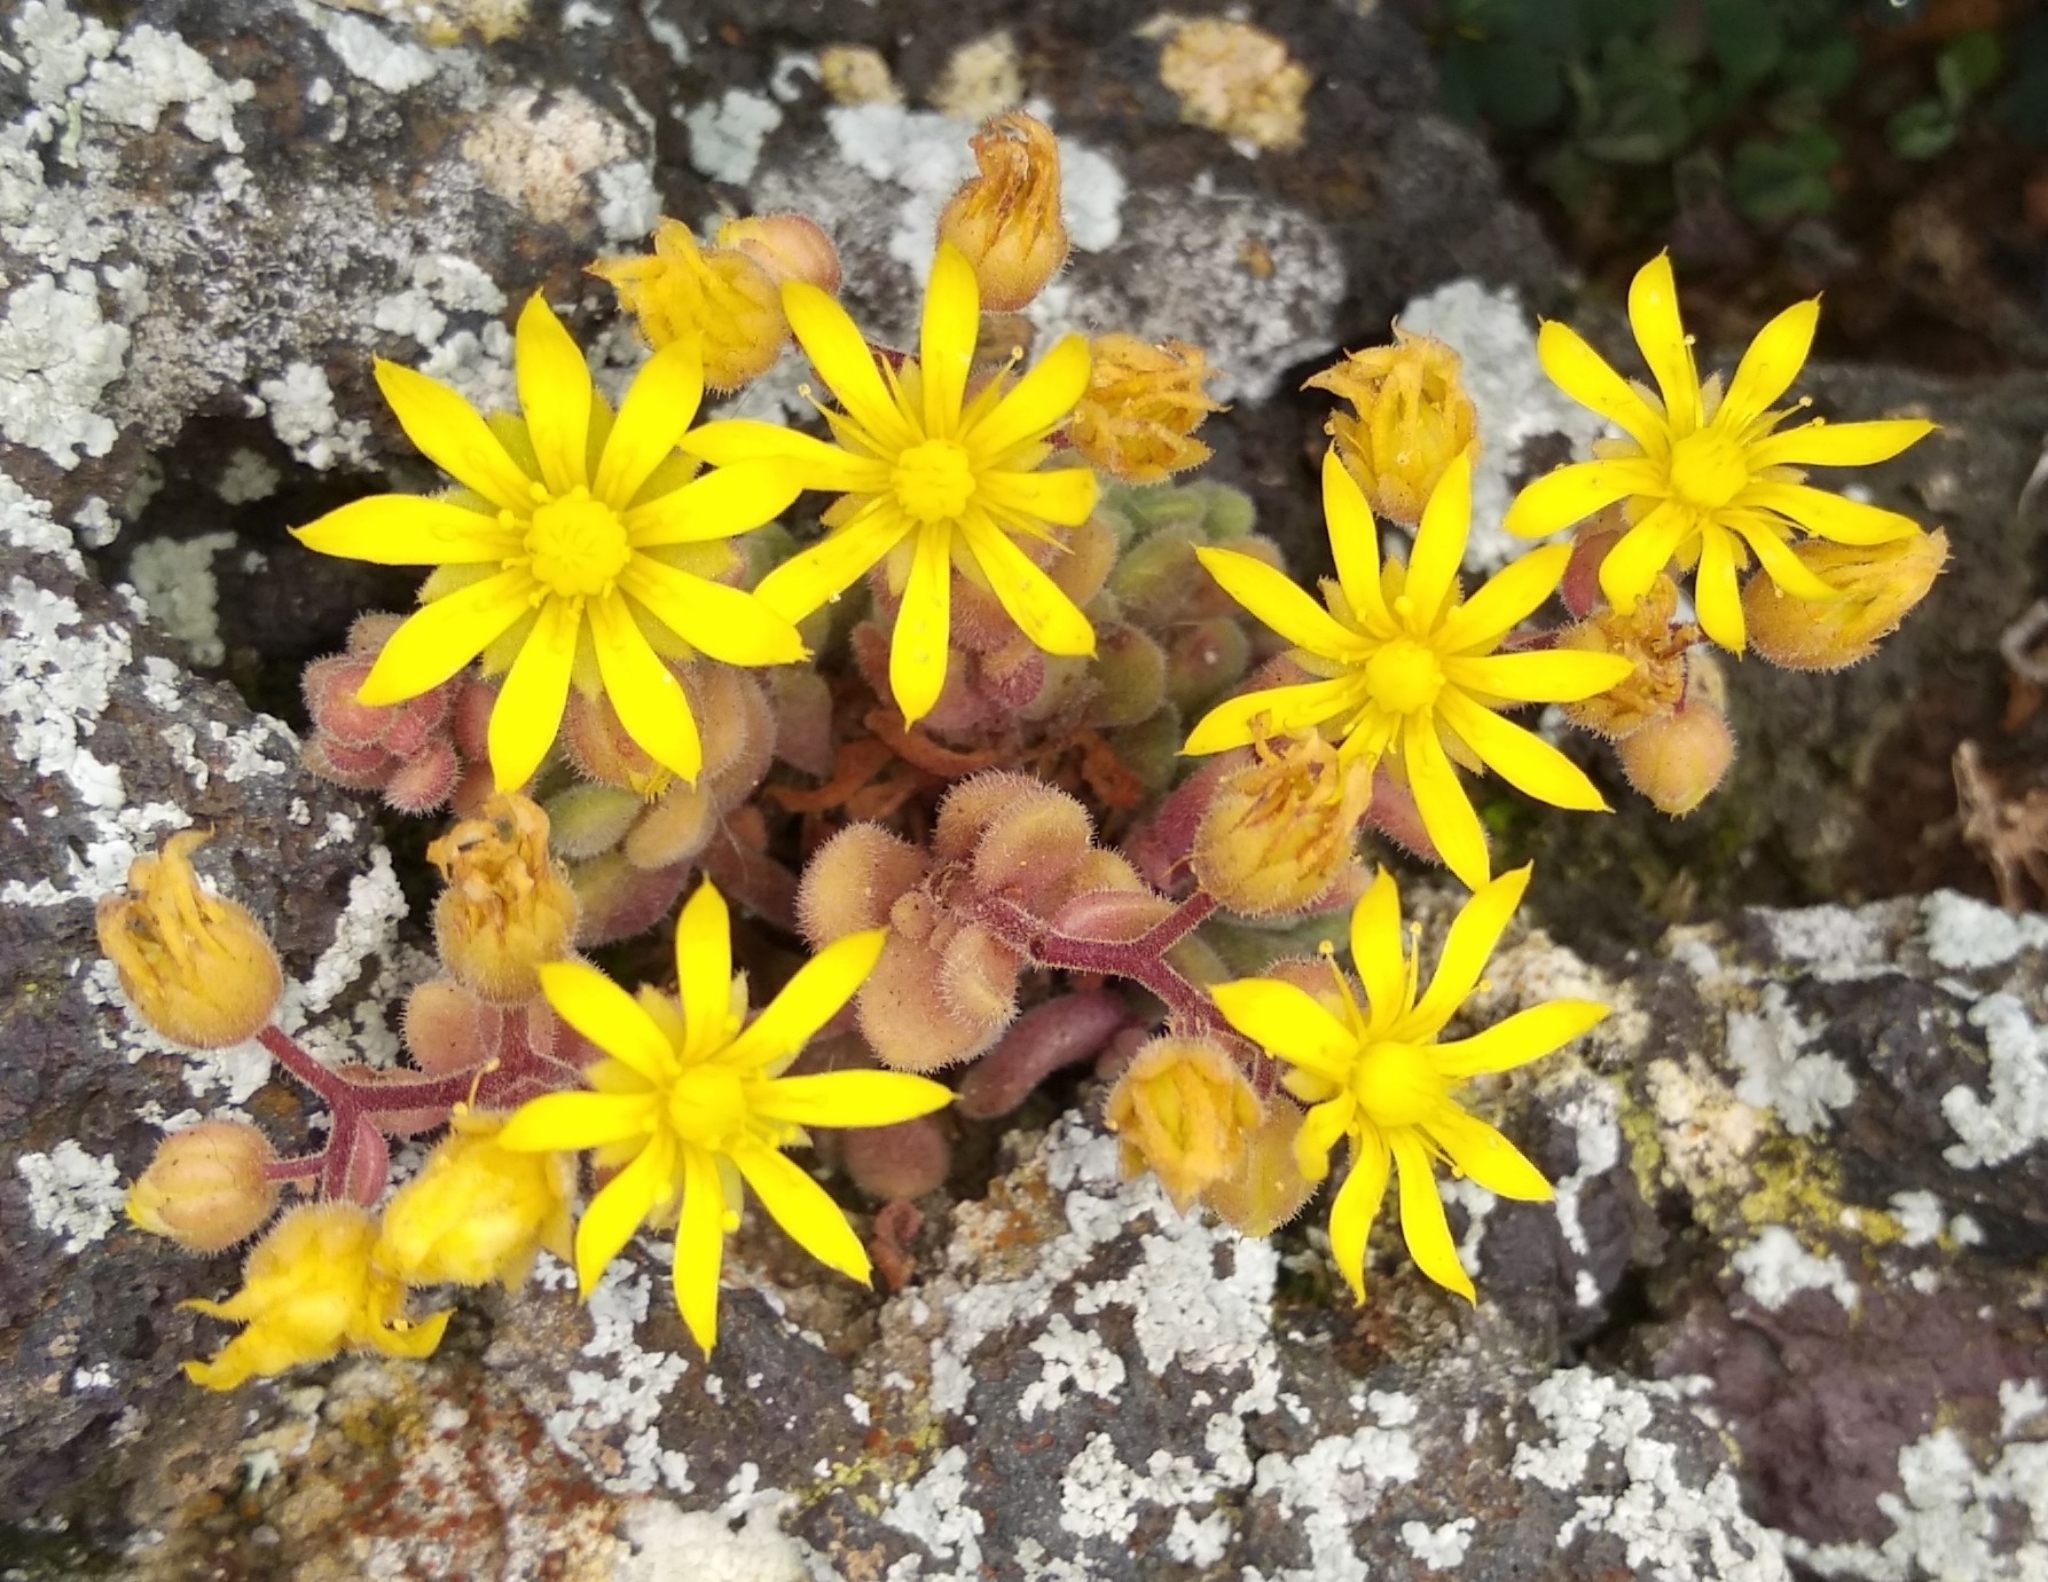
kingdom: Plantae
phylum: Tracheophyta
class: Magnoliopsida
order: Saxifragales
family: Crassulaceae
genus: Aichryson
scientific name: Aichryson tortuosum
